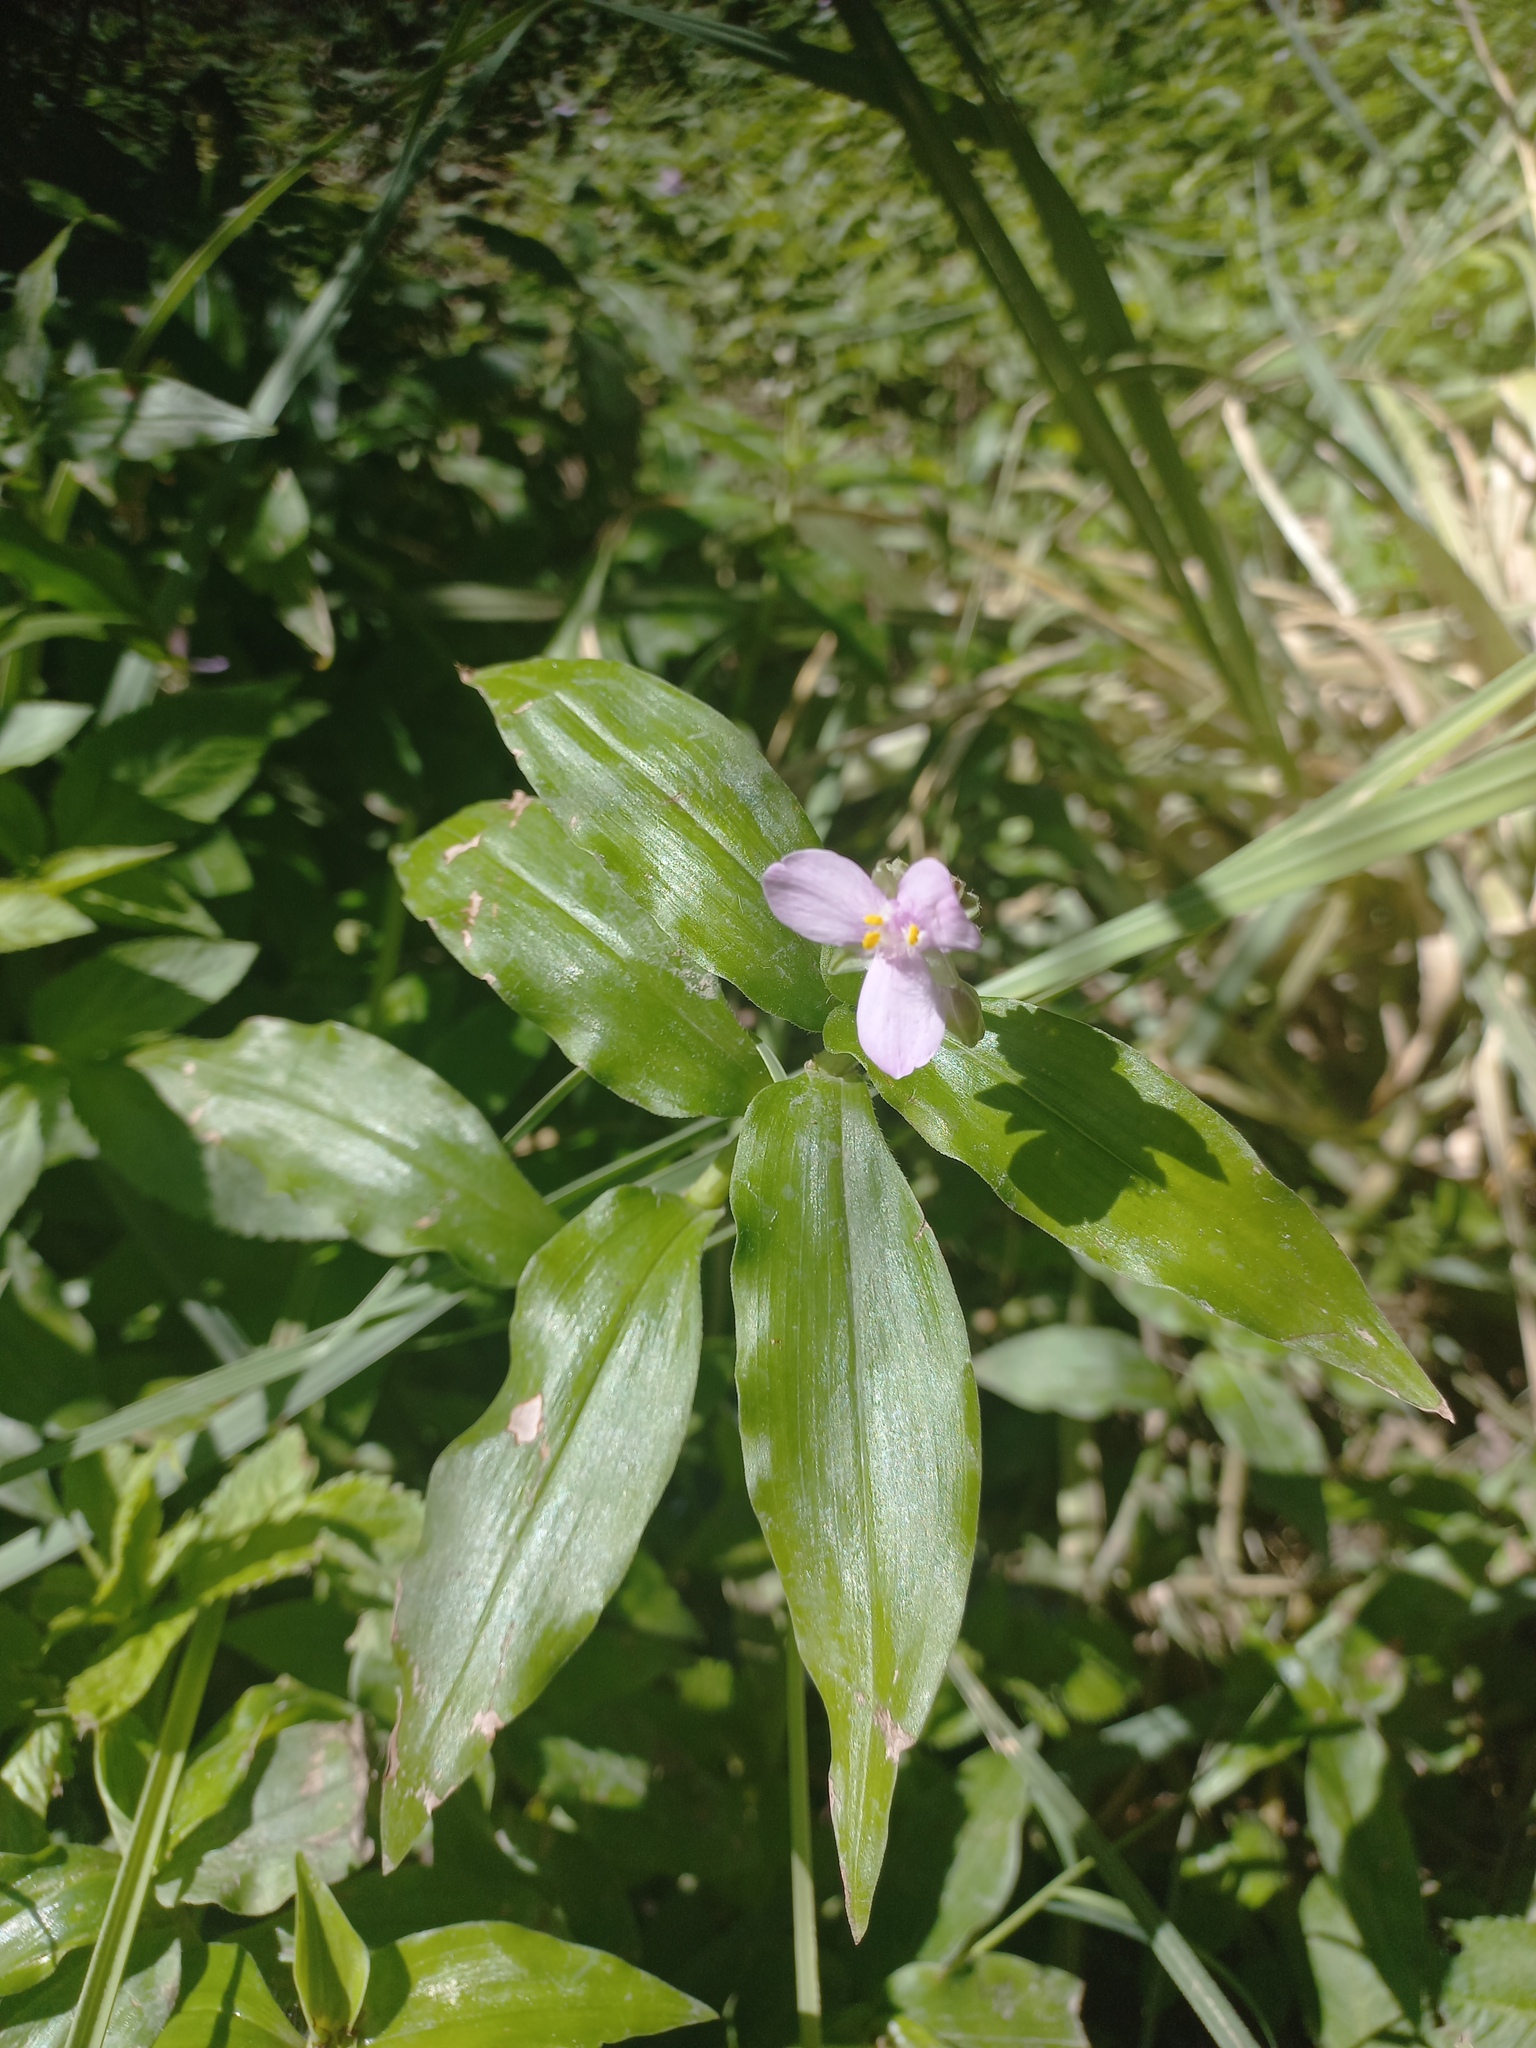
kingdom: Plantae
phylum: Tracheophyta
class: Liliopsida
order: Commelinales
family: Commelinaceae
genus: Callisia
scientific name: Callisia diuretica
